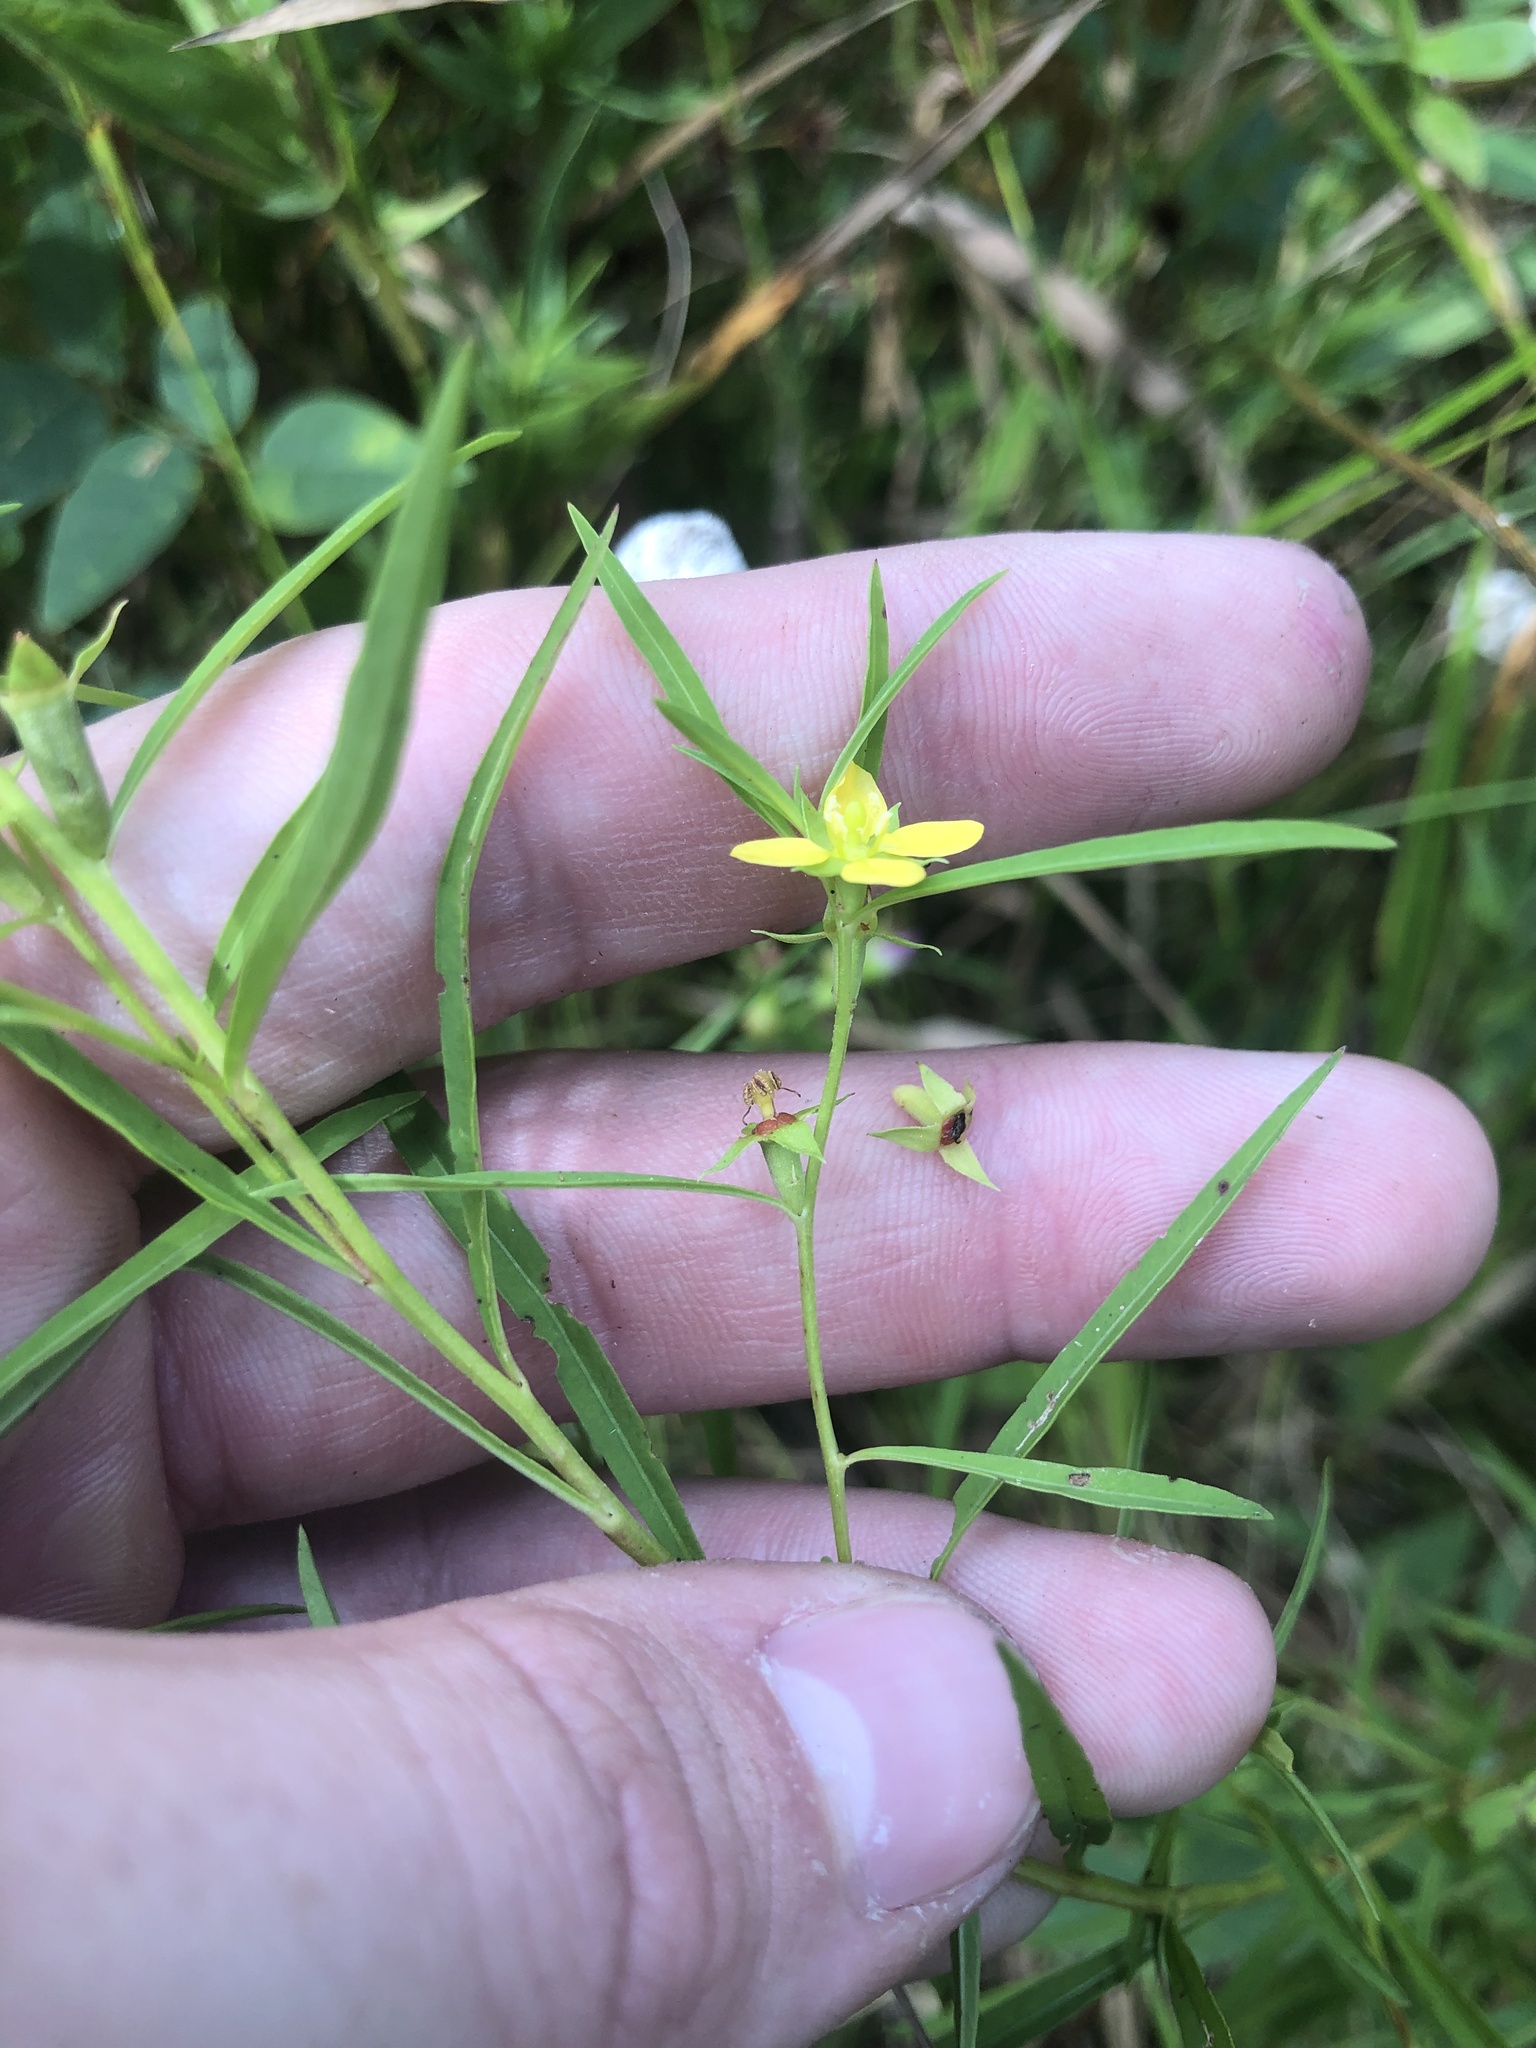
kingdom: Plantae
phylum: Tracheophyta
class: Magnoliopsida
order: Myrtales
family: Onagraceae
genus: Ludwigia
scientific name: Ludwigia linearis
